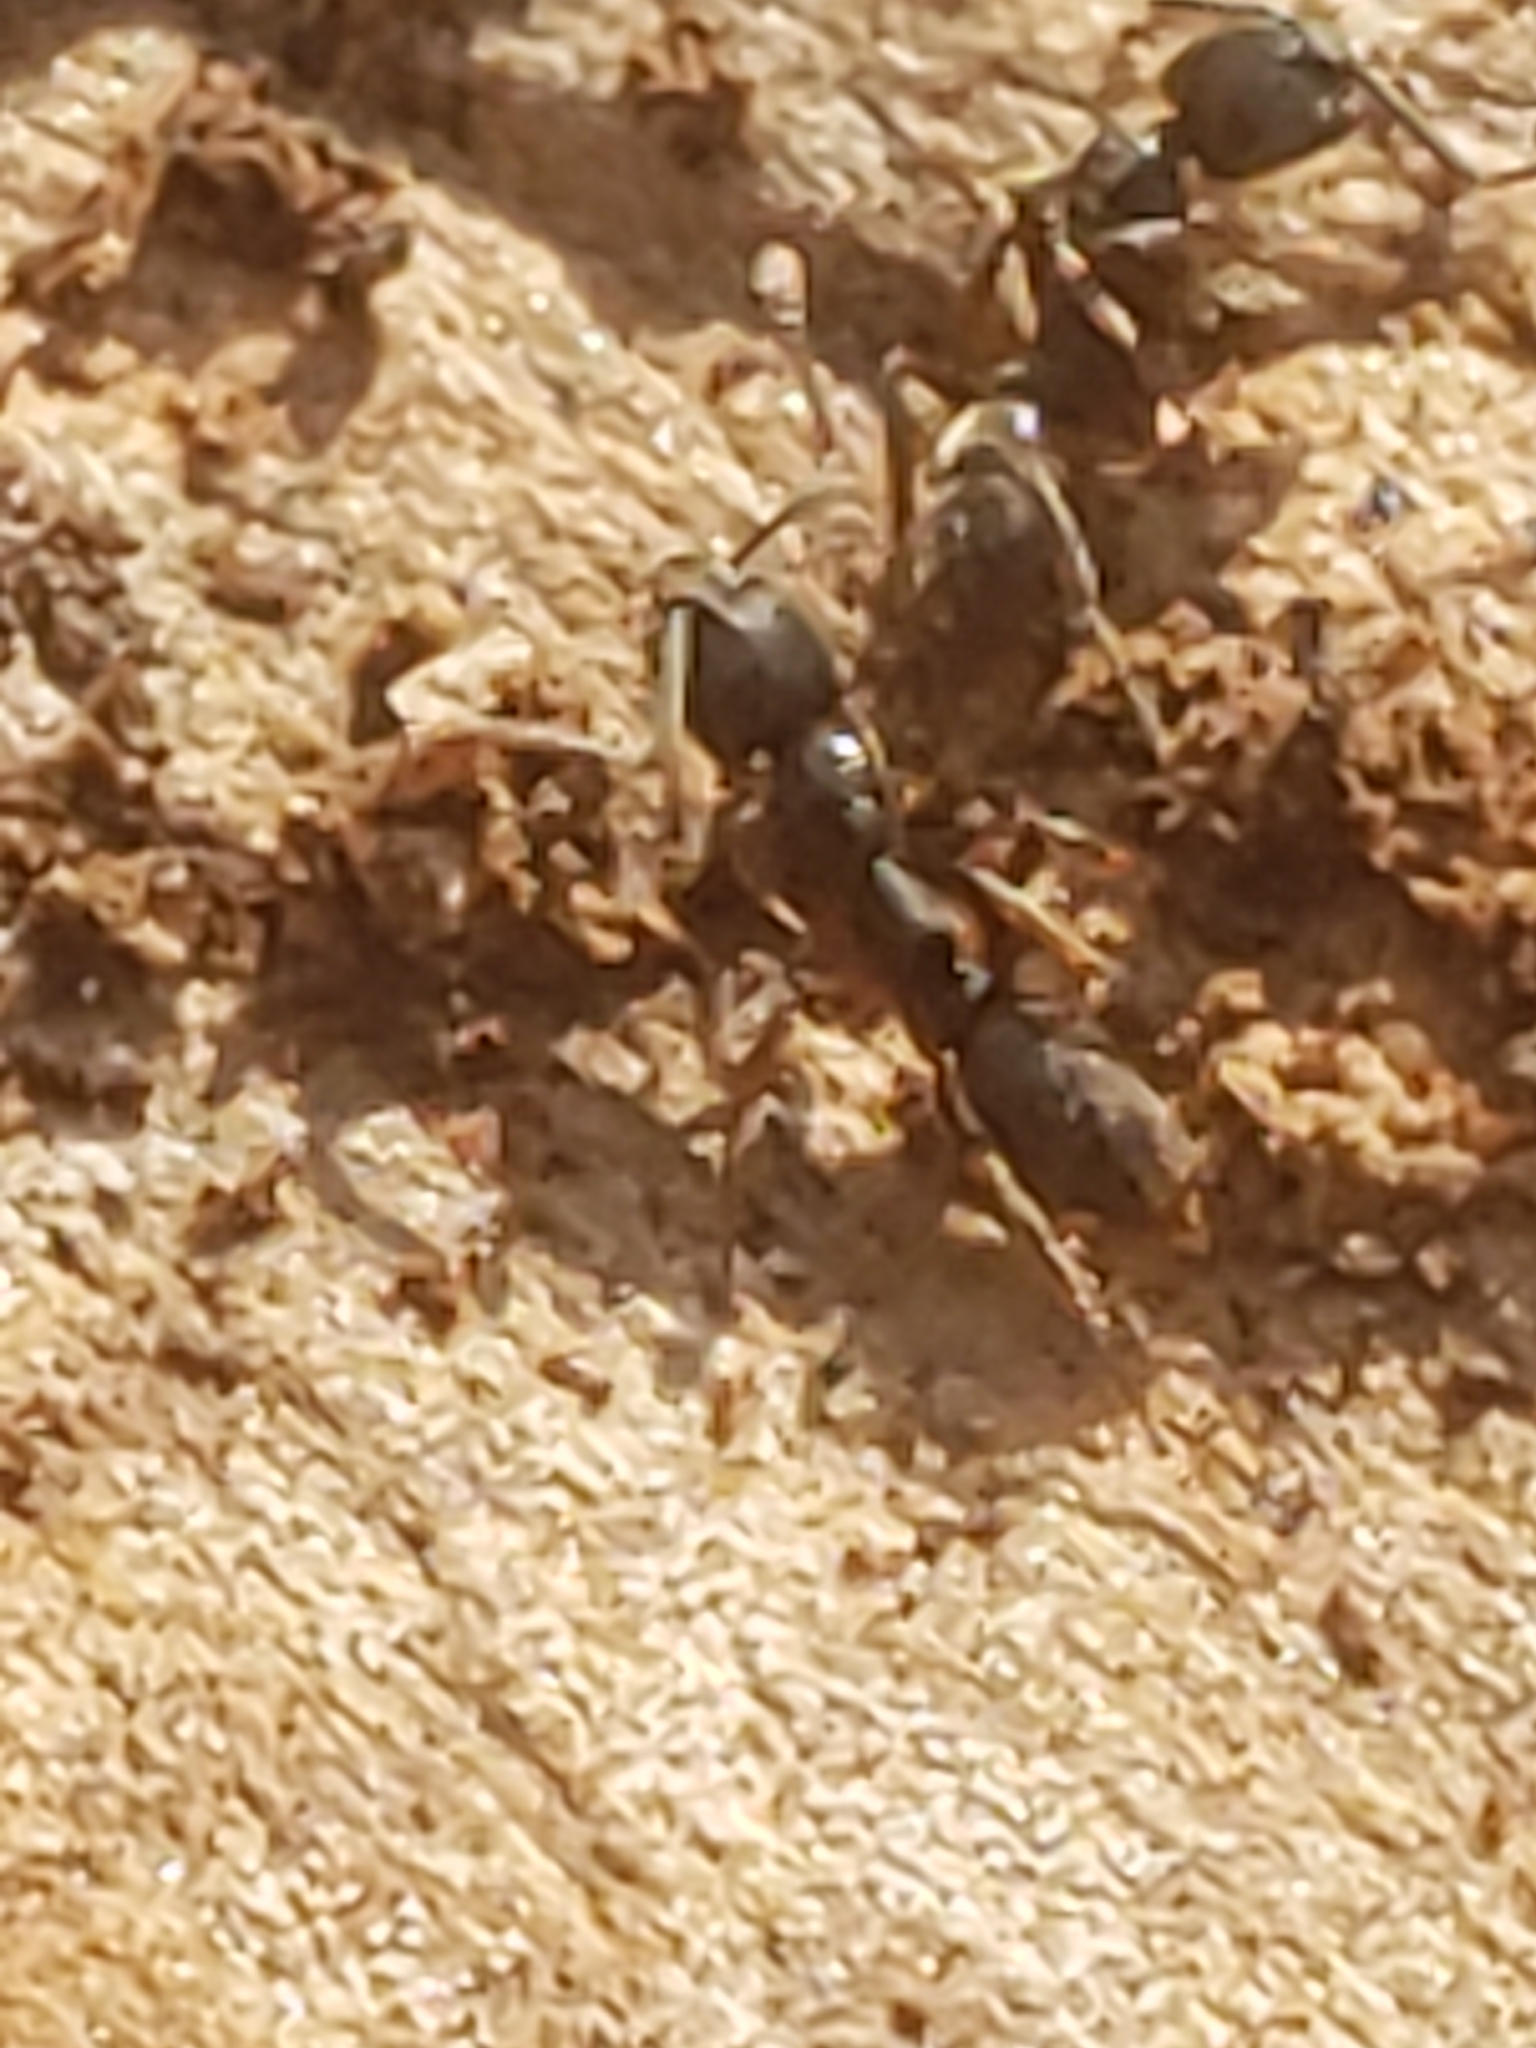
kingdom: Animalia
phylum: Arthropoda
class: Insecta
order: Hymenoptera
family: Formicidae
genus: Pachycondyla
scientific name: Pachycondyla chinensis
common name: Asian needle ant
